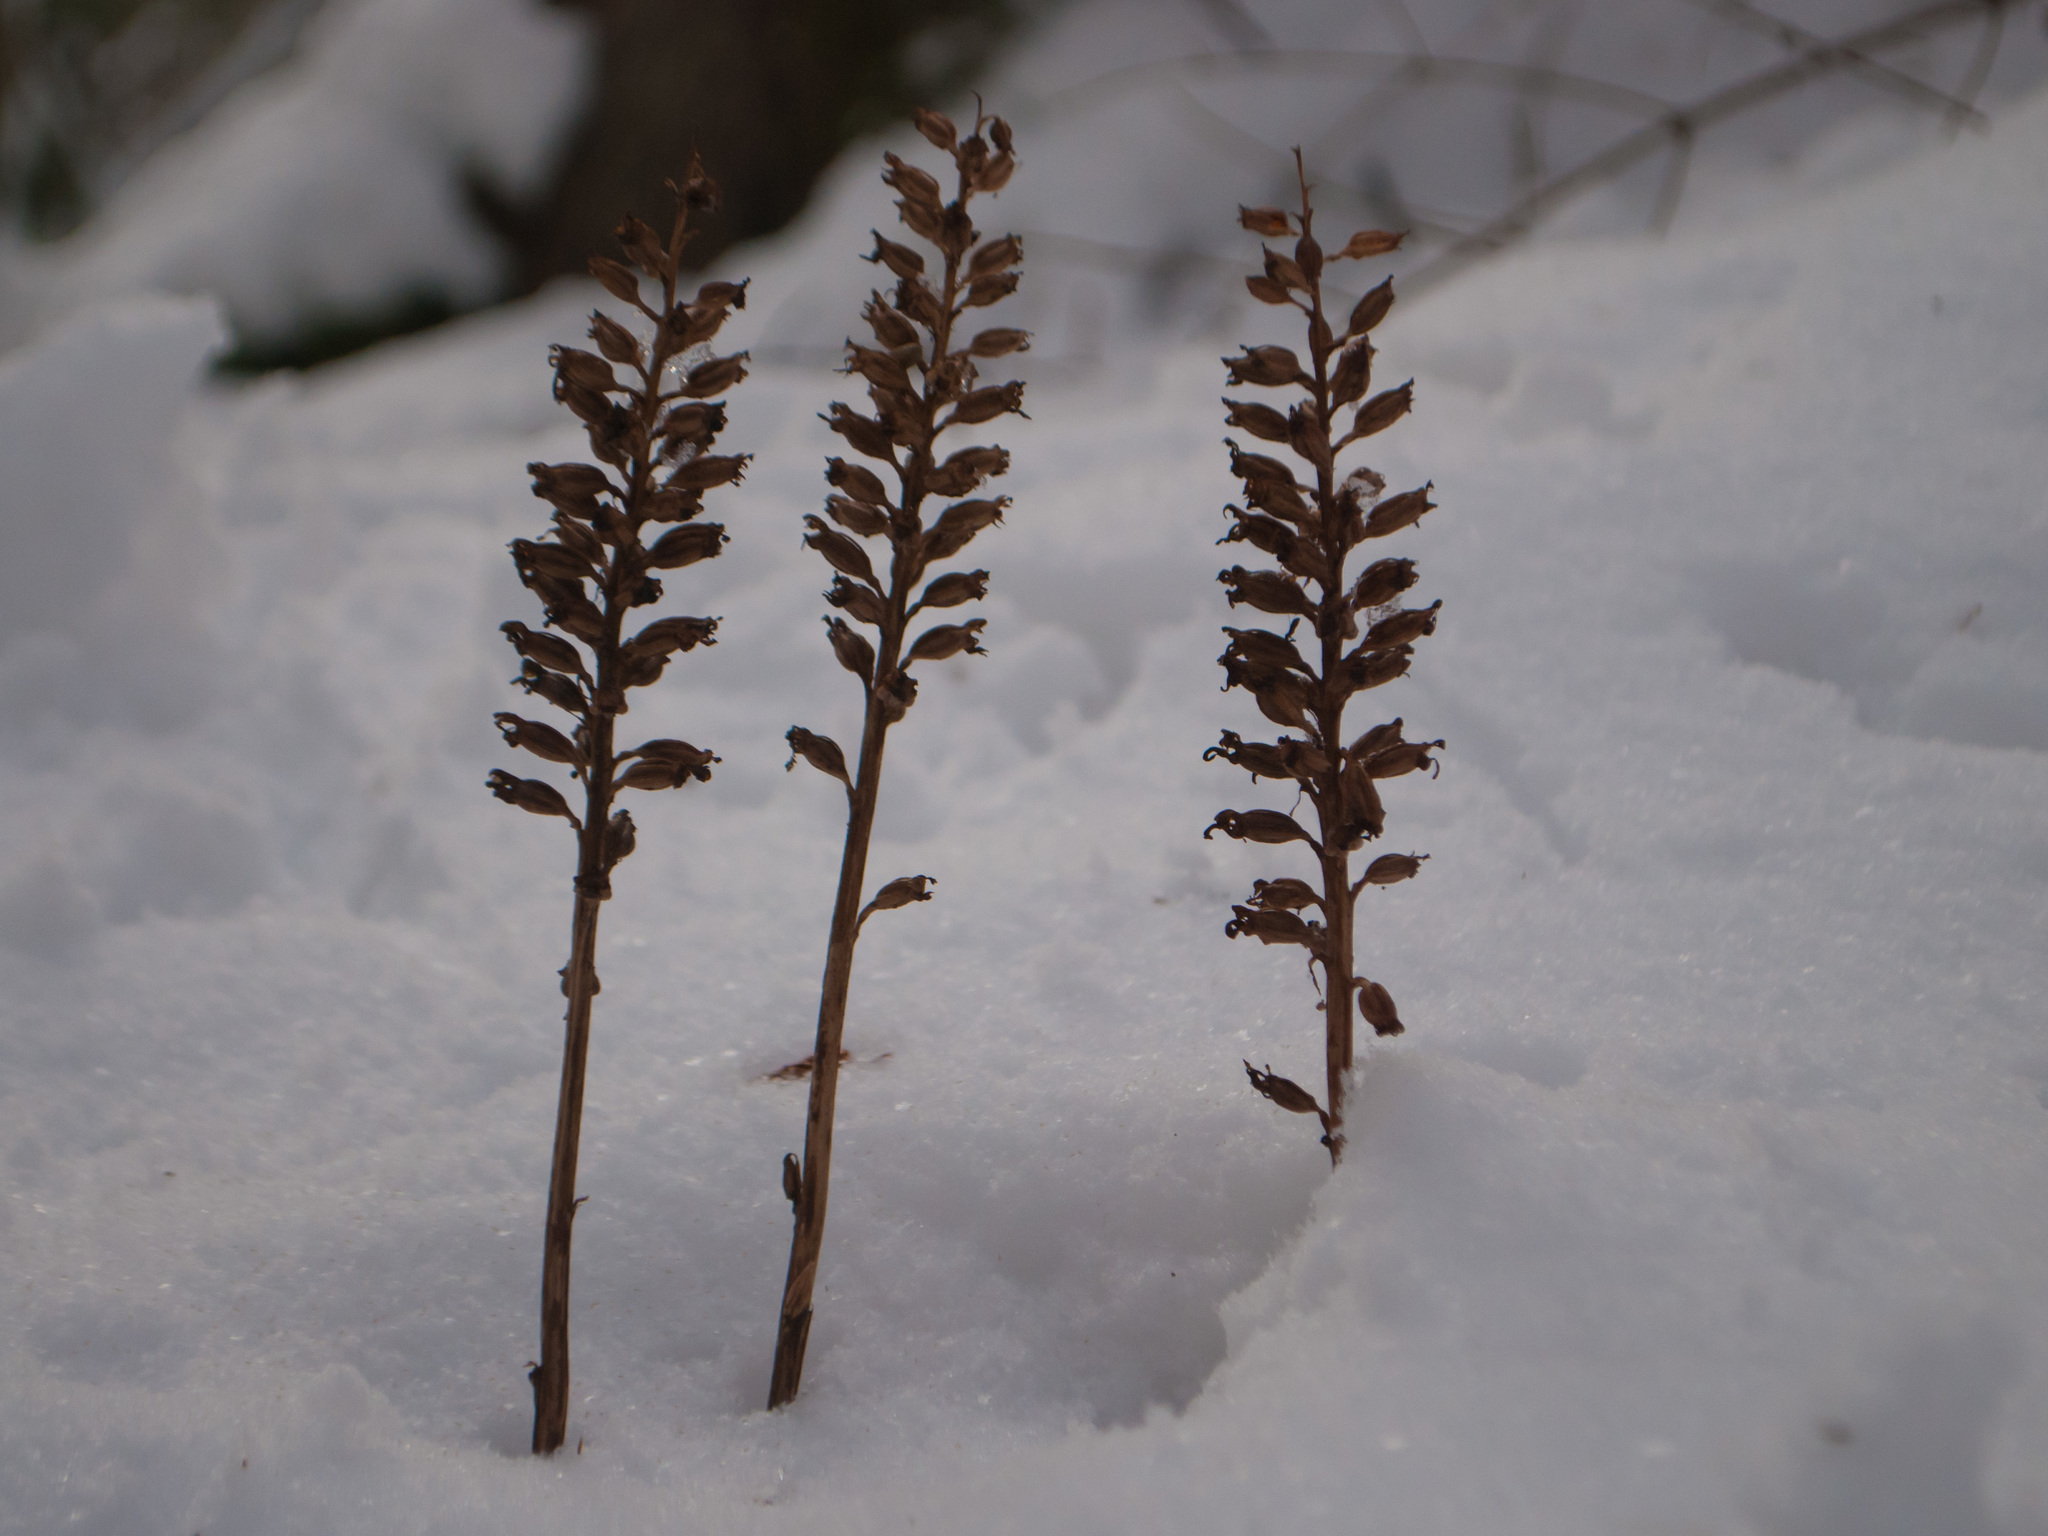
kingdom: Plantae
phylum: Tracheophyta
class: Liliopsida
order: Asparagales
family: Orchidaceae
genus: Neottia
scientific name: Neottia nidus-avis
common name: Bird's-nest orchid
